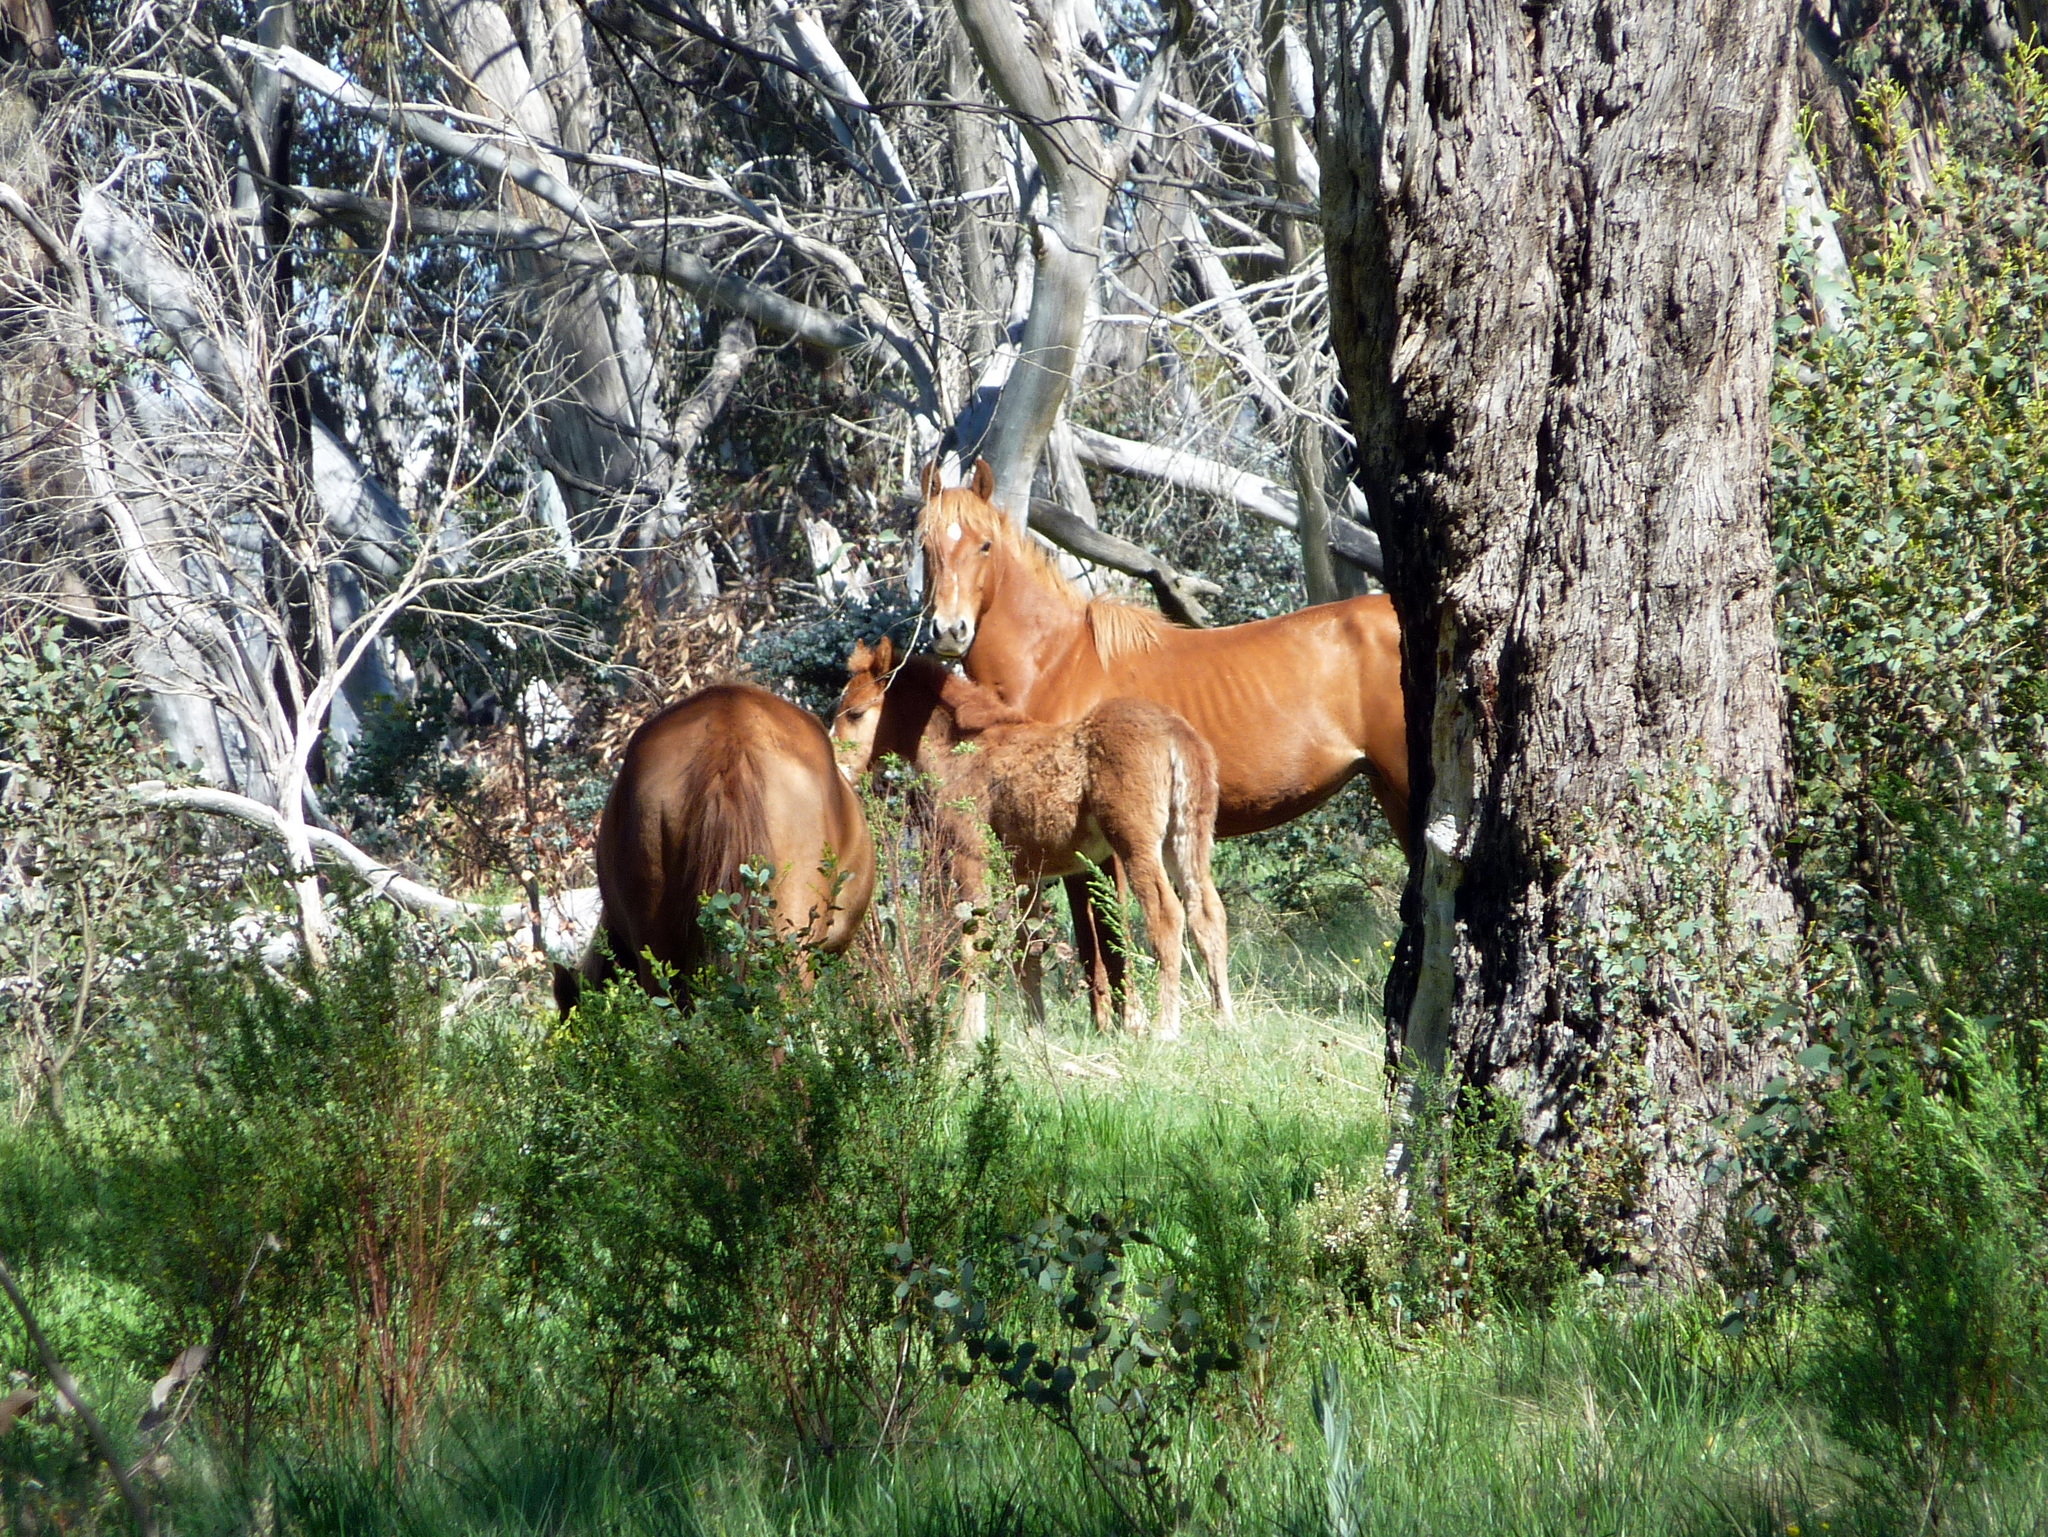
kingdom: Animalia
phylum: Chordata
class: Mammalia
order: Perissodactyla
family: Equidae
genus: Equus
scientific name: Equus caballus
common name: Horse
